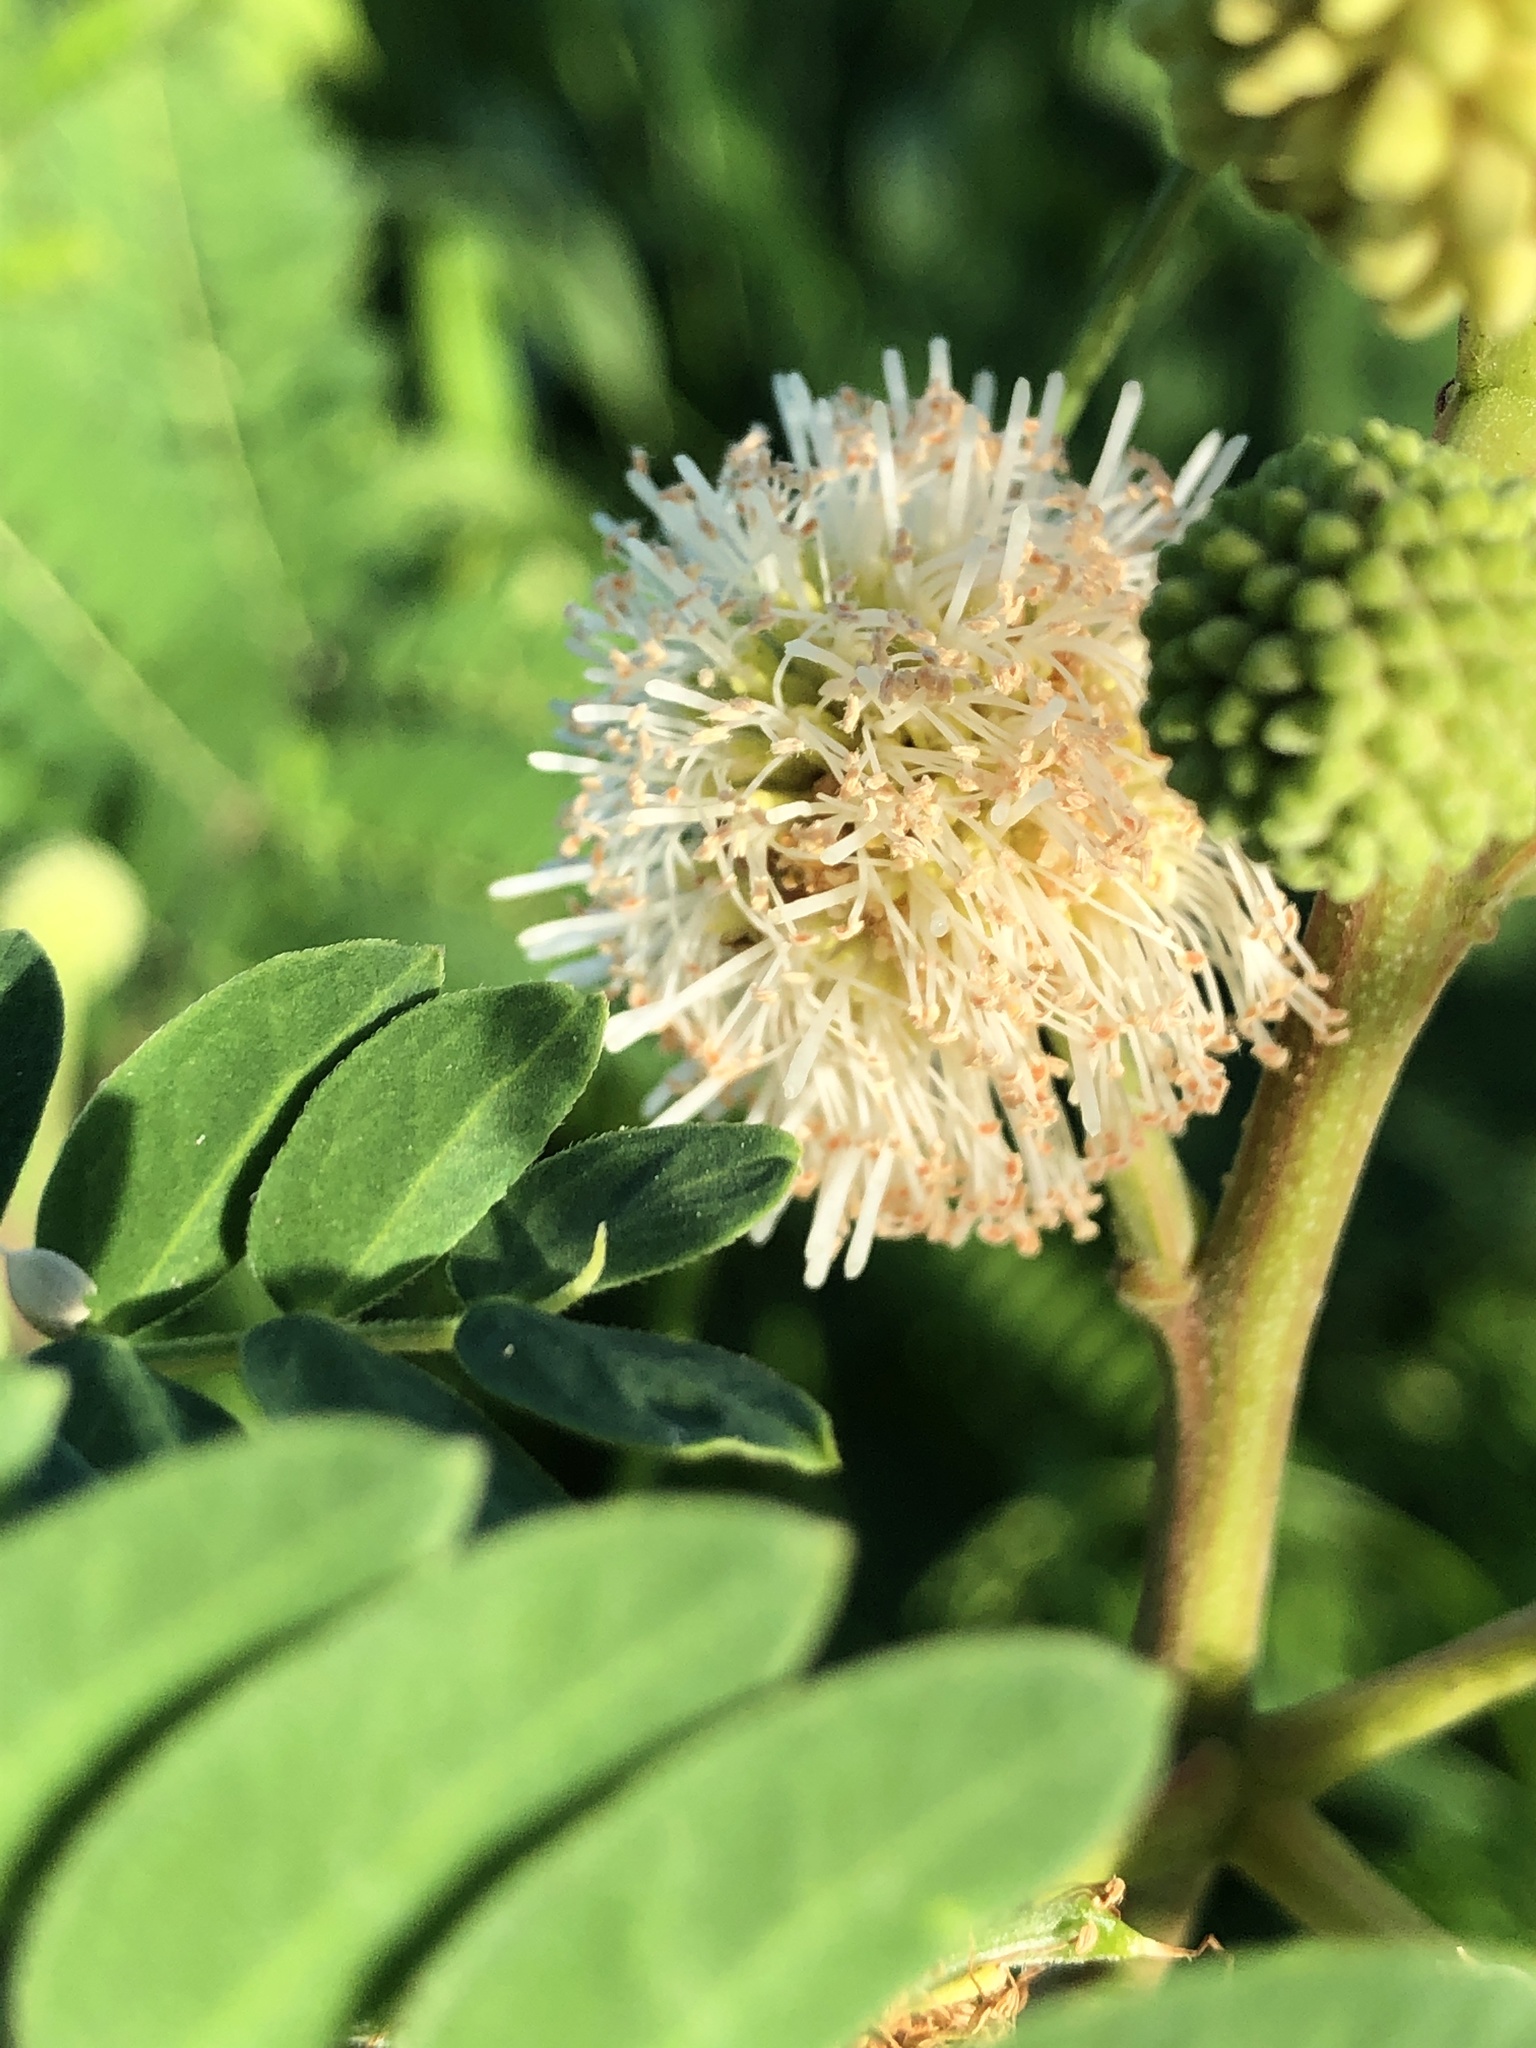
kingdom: Plantae
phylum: Tracheophyta
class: Magnoliopsida
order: Fabales
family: Fabaceae
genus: Leucaena
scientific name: Leucaena leucocephala
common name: White leadtree
